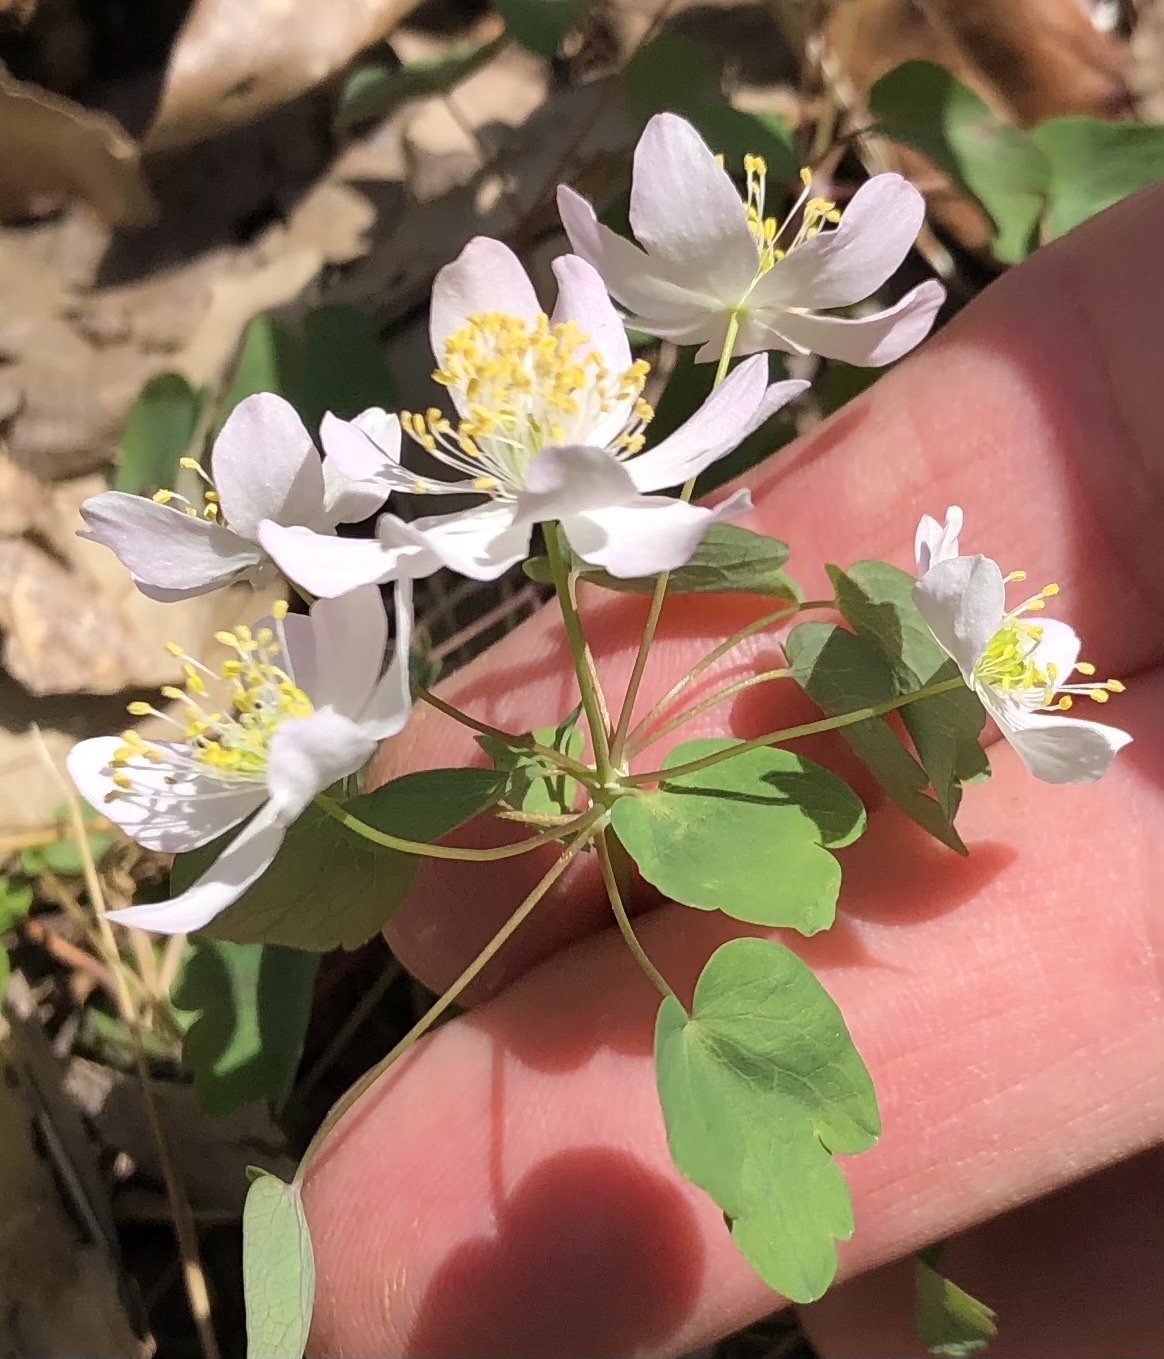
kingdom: Plantae
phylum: Tracheophyta
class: Magnoliopsida
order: Ranunculales
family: Ranunculaceae
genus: Thalictrum
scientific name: Thalictrum thalictroides
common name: Rue-anemone
